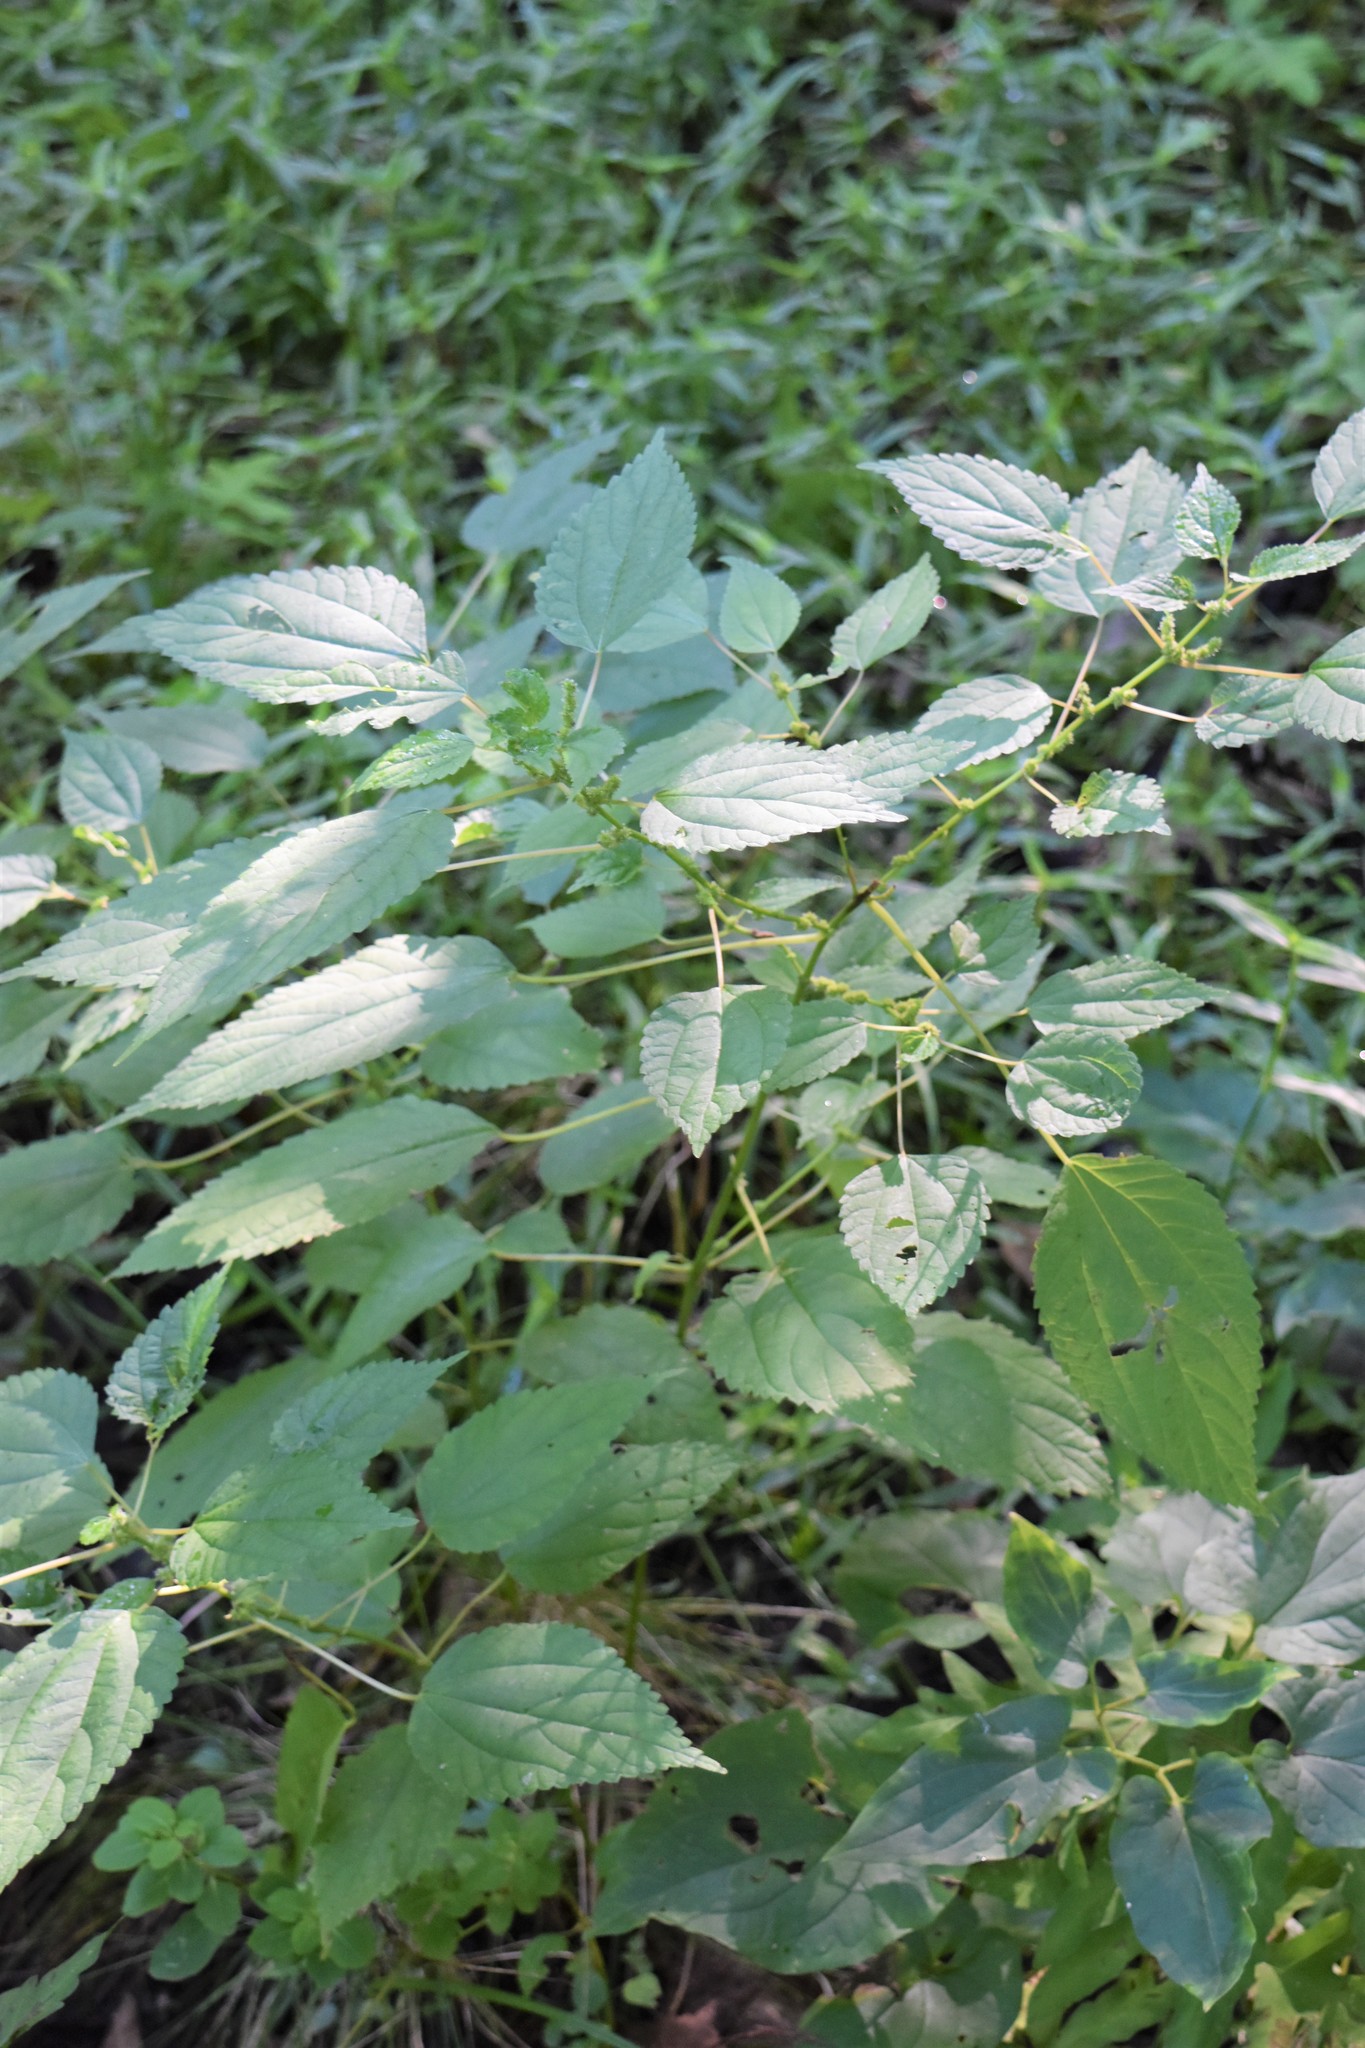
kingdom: Plantae
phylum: Tracheophyta
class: Magnoliopsida
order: Rosales
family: Urticaceae
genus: Boehmeria
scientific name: Boehmeria cylindrica
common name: Bog-hemp
